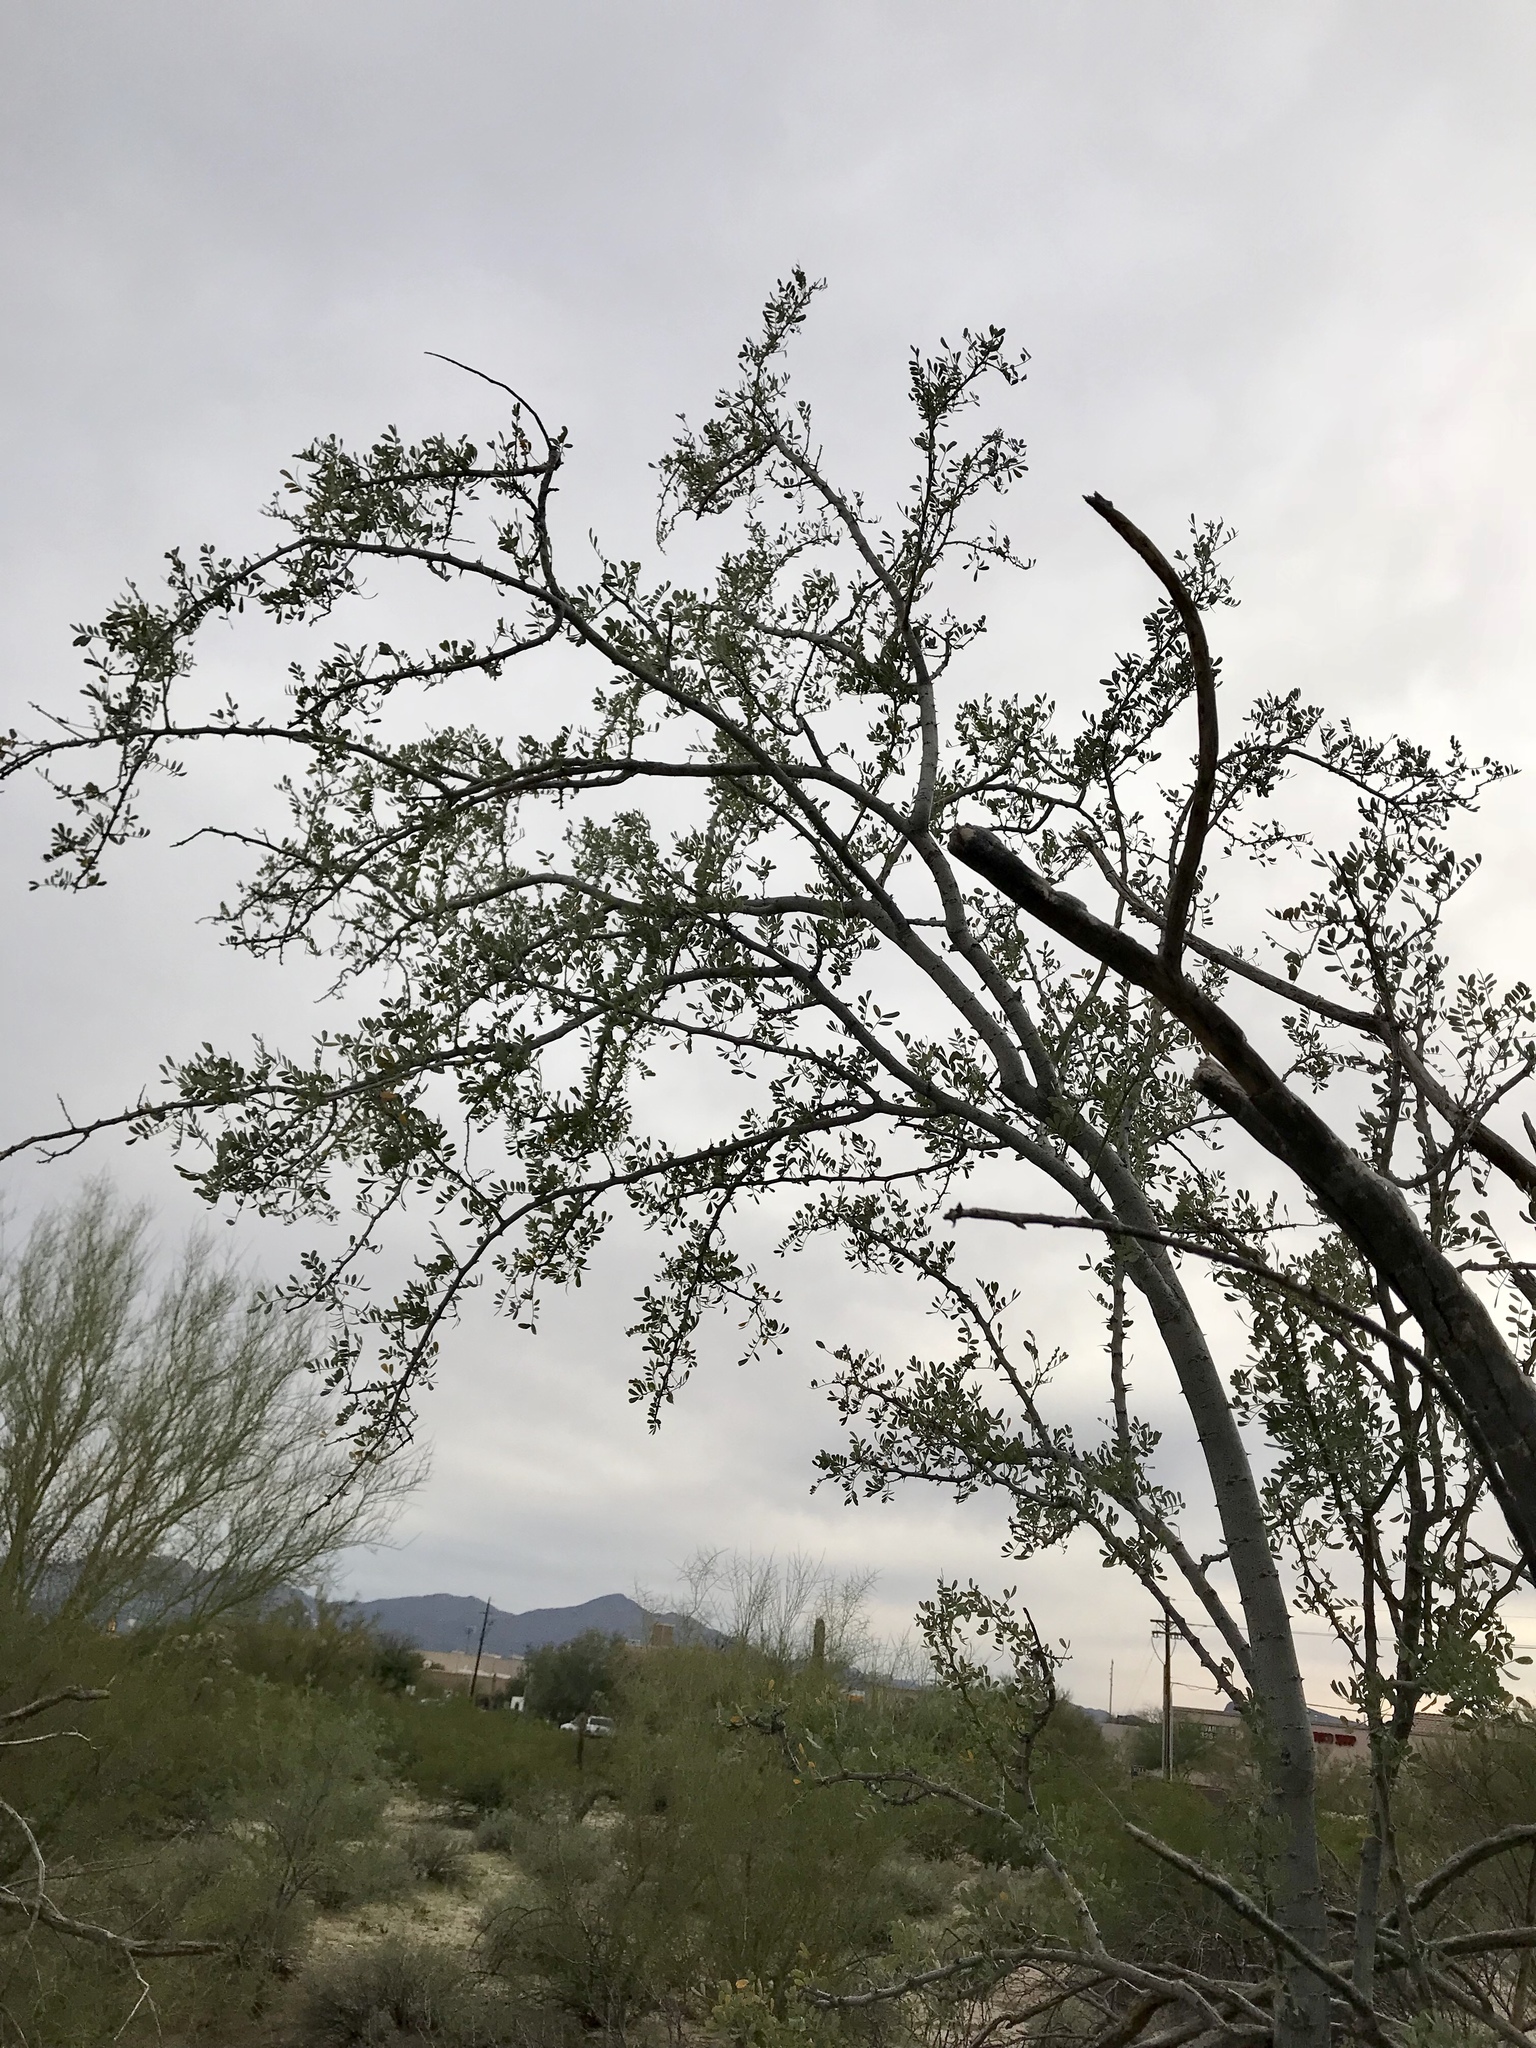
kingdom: Plantae
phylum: Tracheophyta
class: Magnoliopsida
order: Fabales
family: Fabaceae
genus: Olneya
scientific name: Olneya tesota
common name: Desert ironwood
